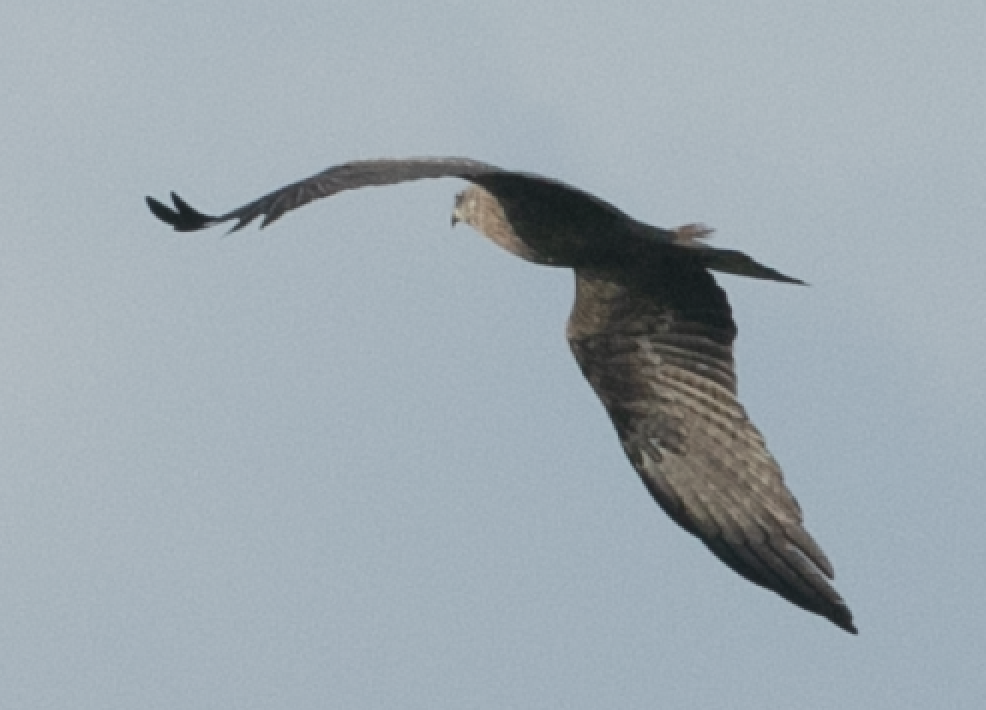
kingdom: Animalia
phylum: Chordata
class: Aves
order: Accipitriformes
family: Accipitridae
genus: Milvus
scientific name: Milvus migrans
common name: Black kite
